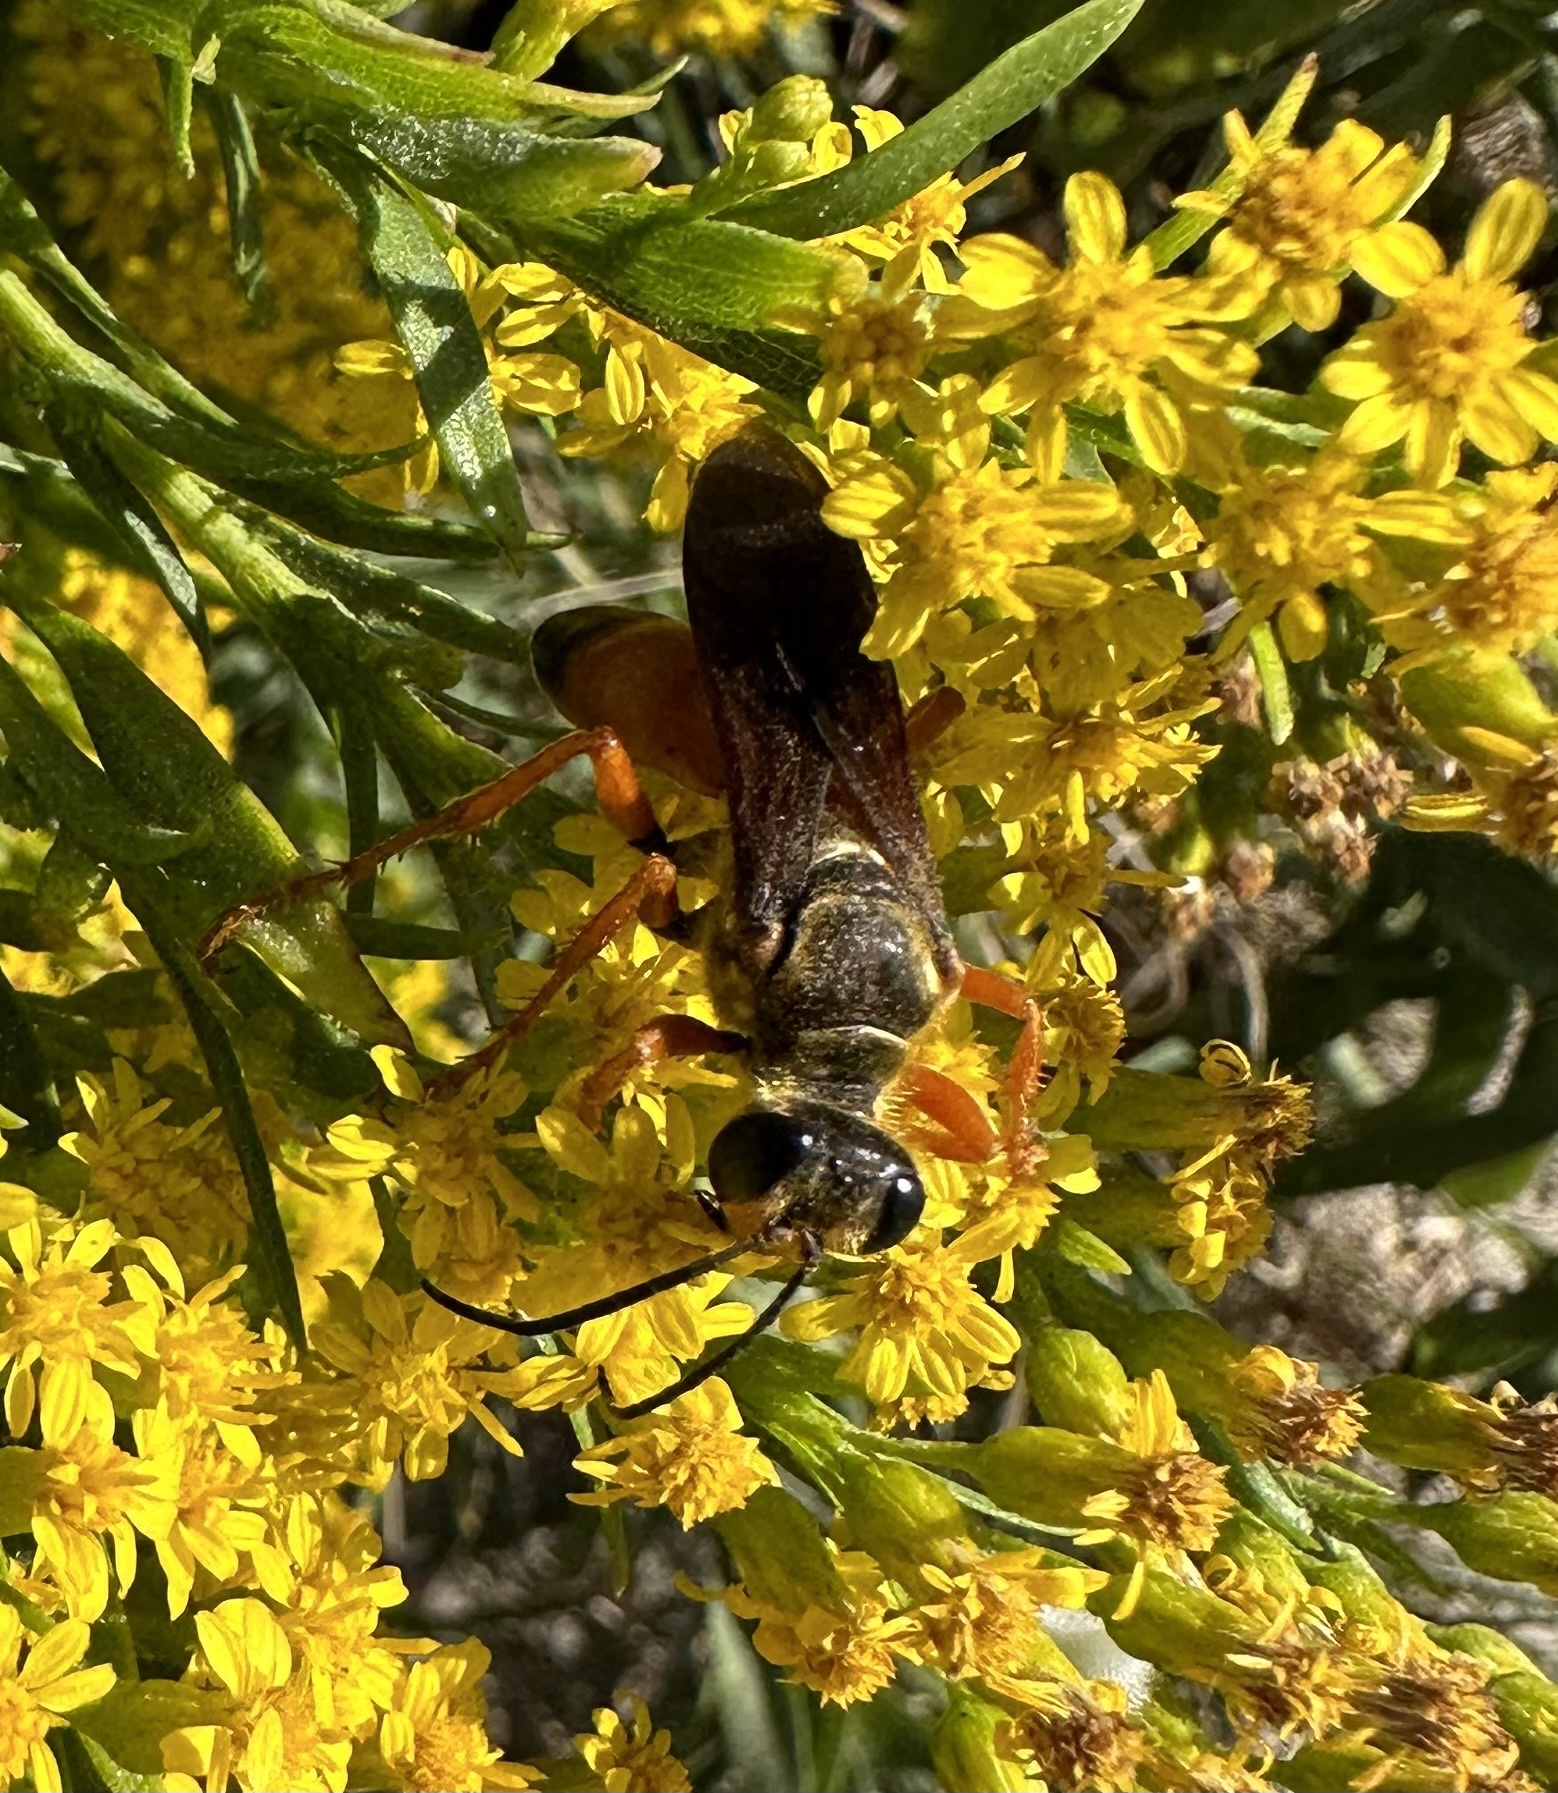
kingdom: Animalia
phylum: Arthropoda
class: Insecta
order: Hymenoptera
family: Sphecidae
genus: Sphex
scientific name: Sphex ichneumoneus
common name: Great golden digger wasp
